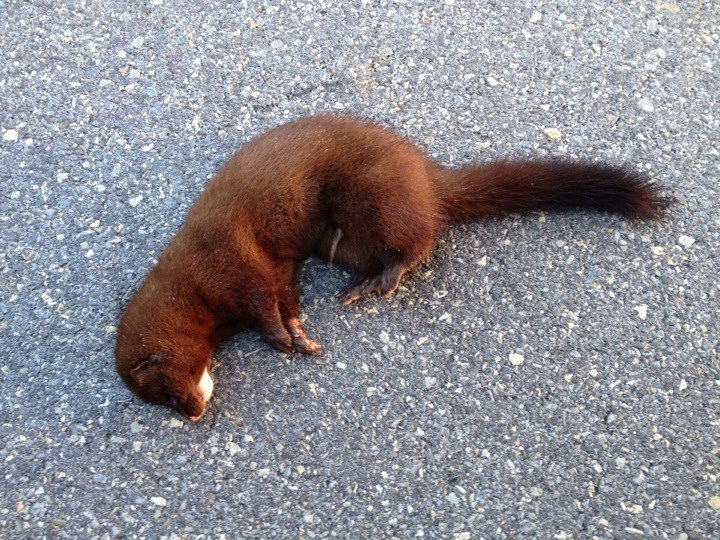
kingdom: Animalia
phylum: Chordata
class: Mammalia
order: Carnivora
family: Mustelidae
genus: Mustela
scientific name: Mustela
